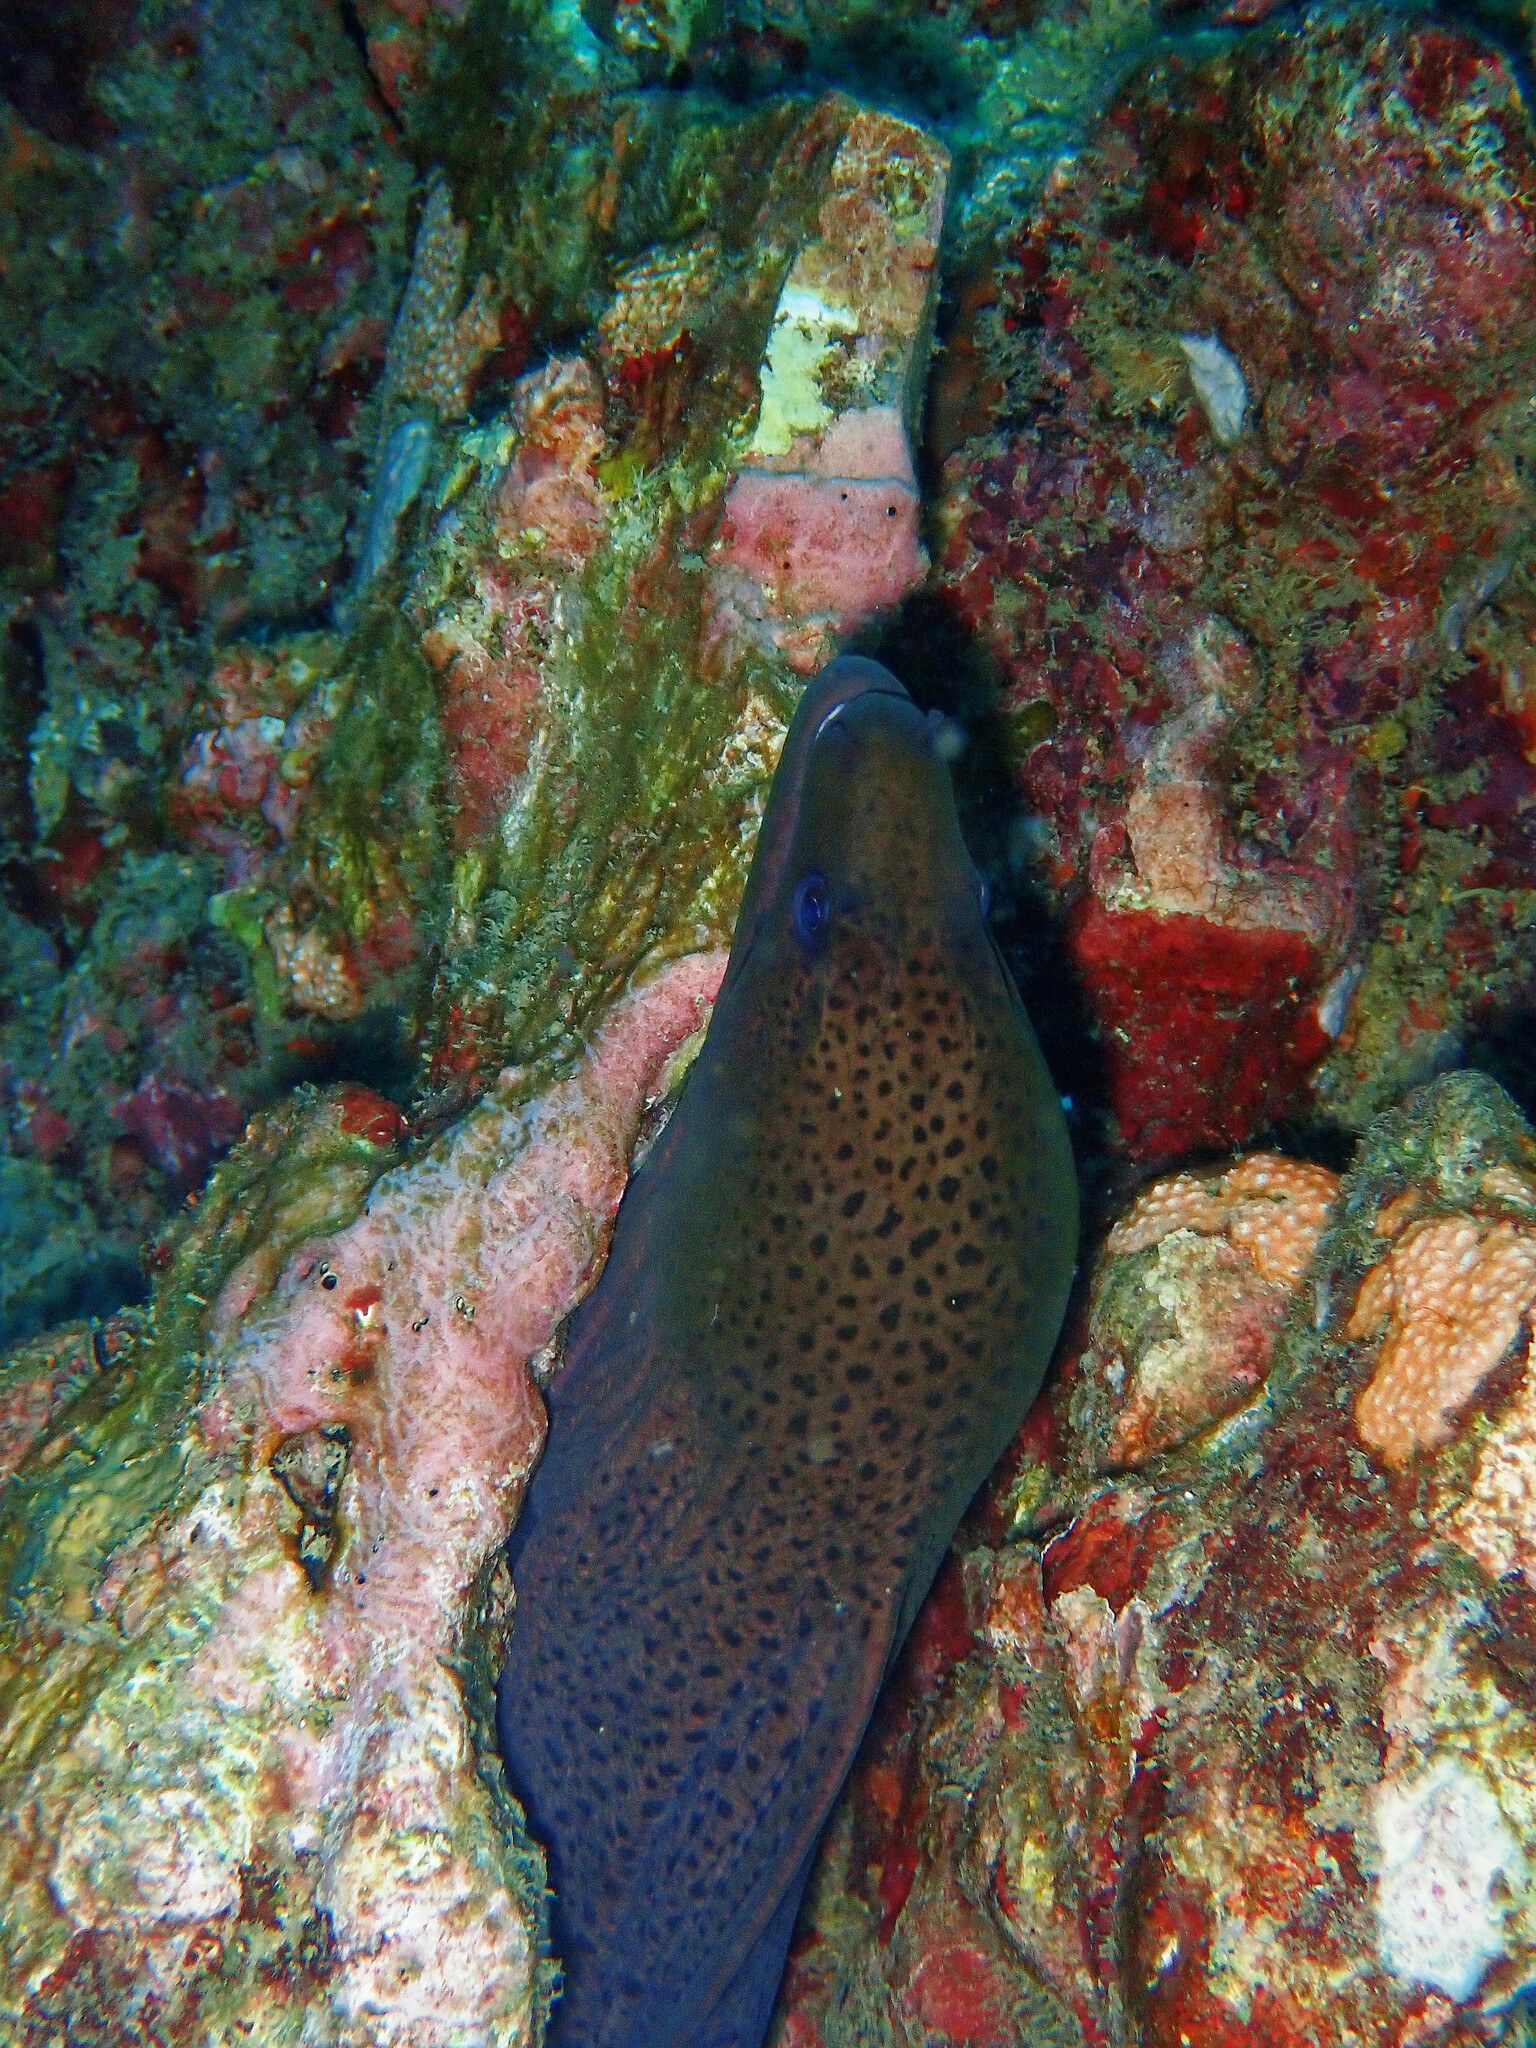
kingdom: Animalia
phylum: Chordata
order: Anguilliformes
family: Muraenidae
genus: Gymnothorax
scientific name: Gymnothorax javanicus
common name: Giant moray
